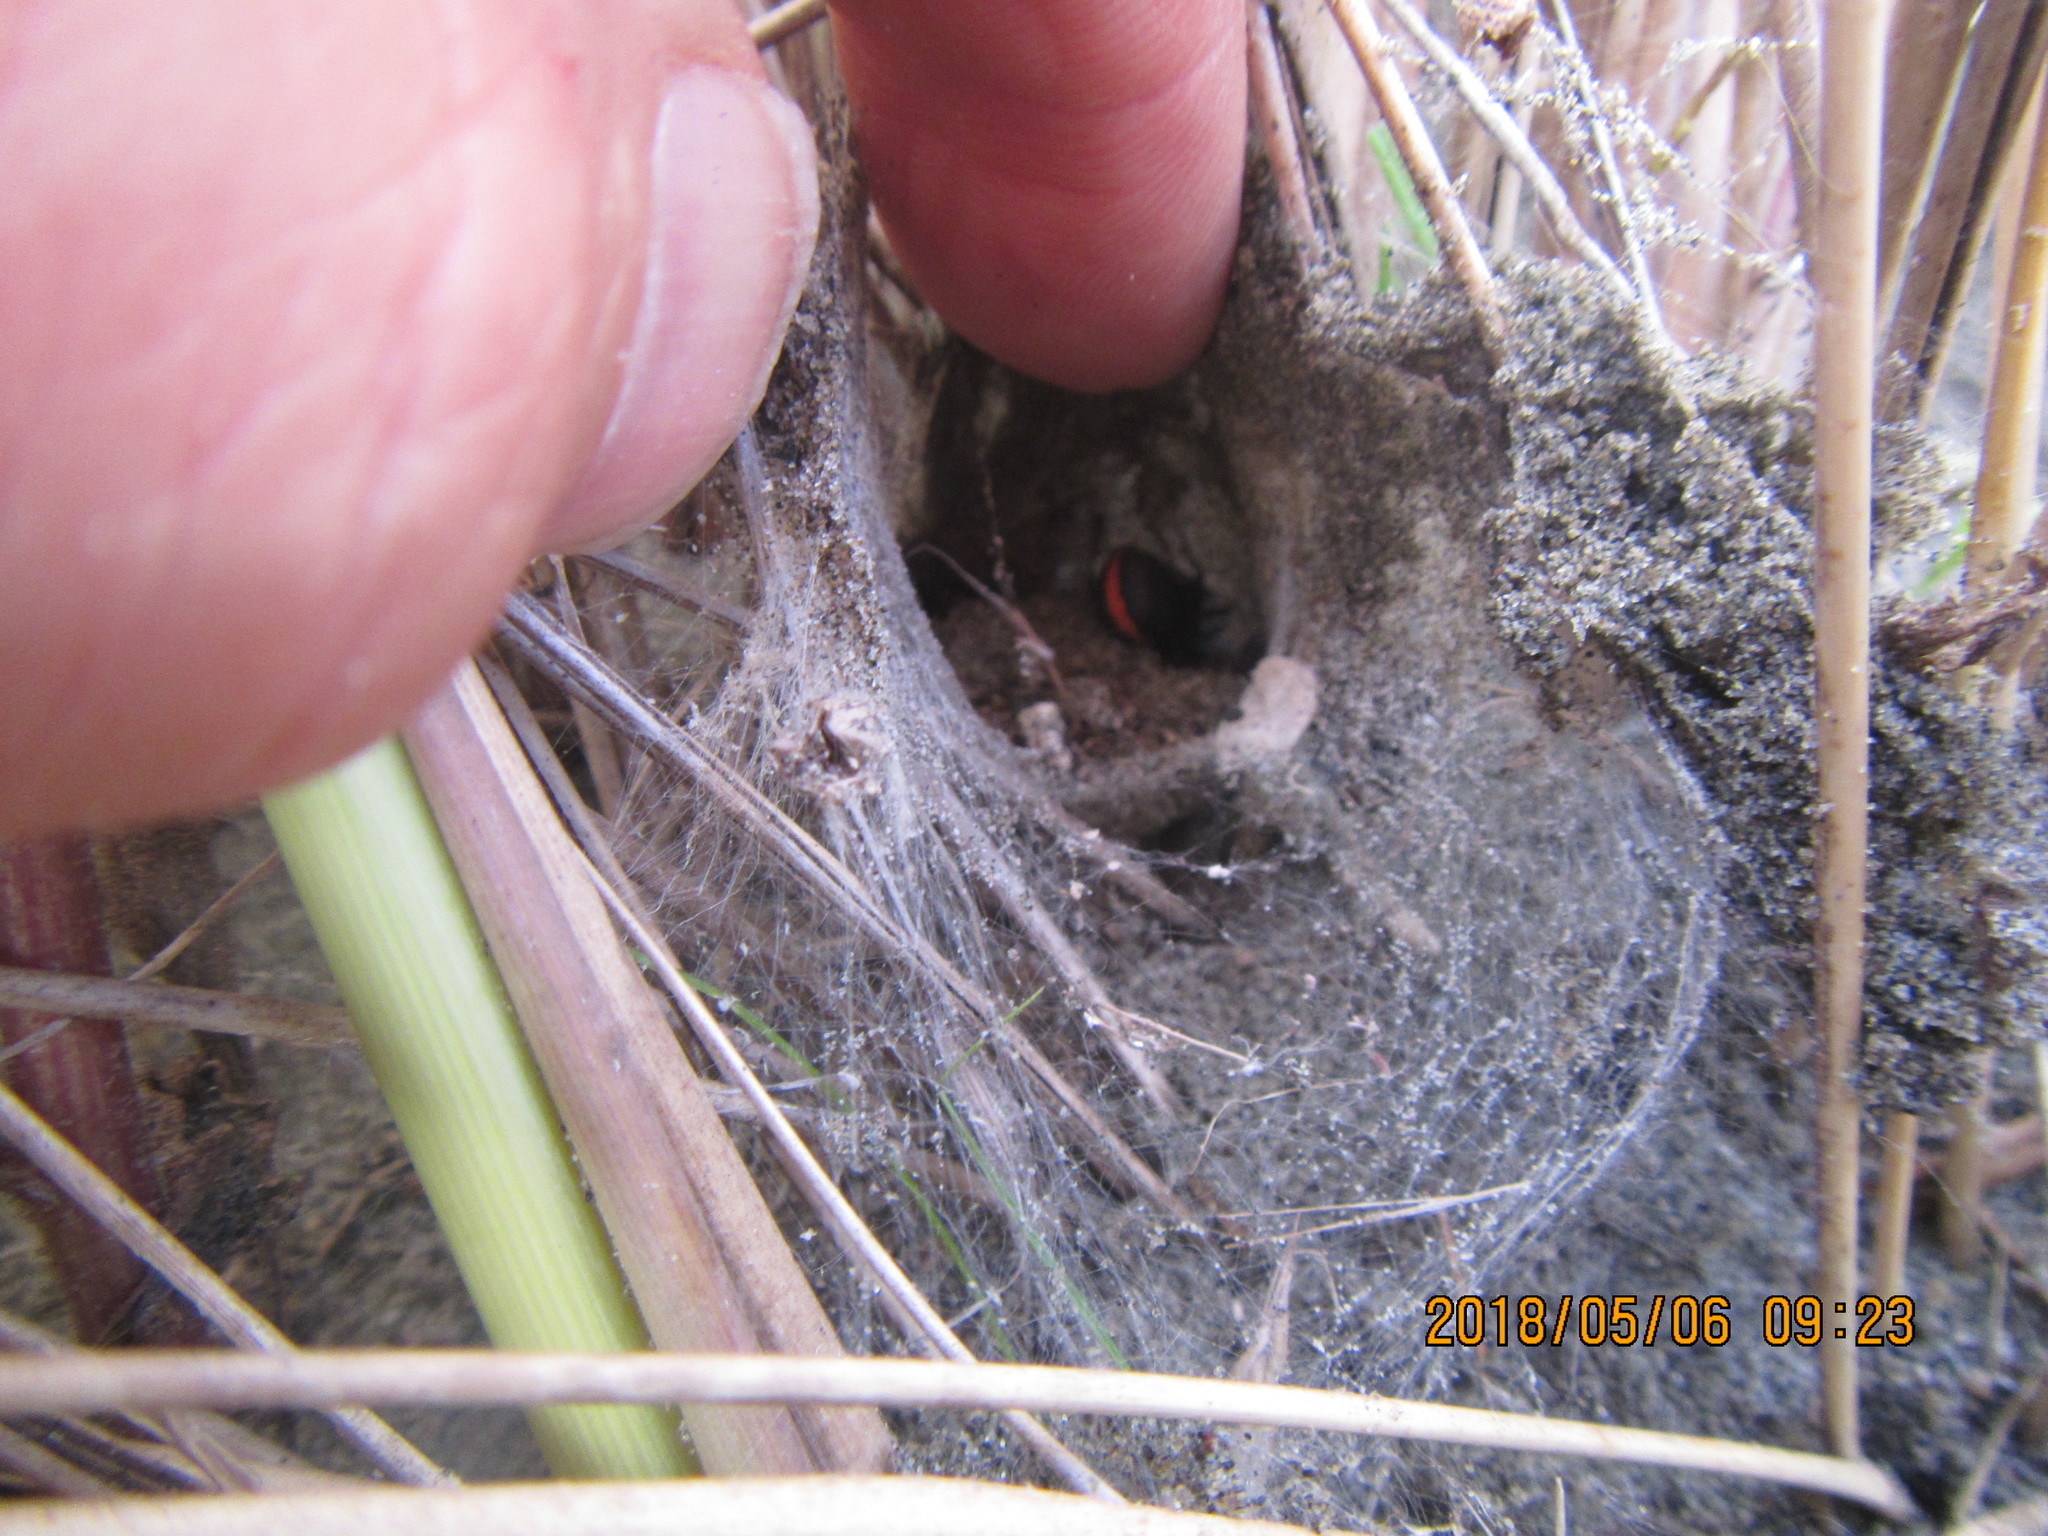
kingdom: Animalia
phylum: Arthropoda
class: Arachnida
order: Araneae
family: Theridiidae
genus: Latrodectus
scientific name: Latrodectus katipo
